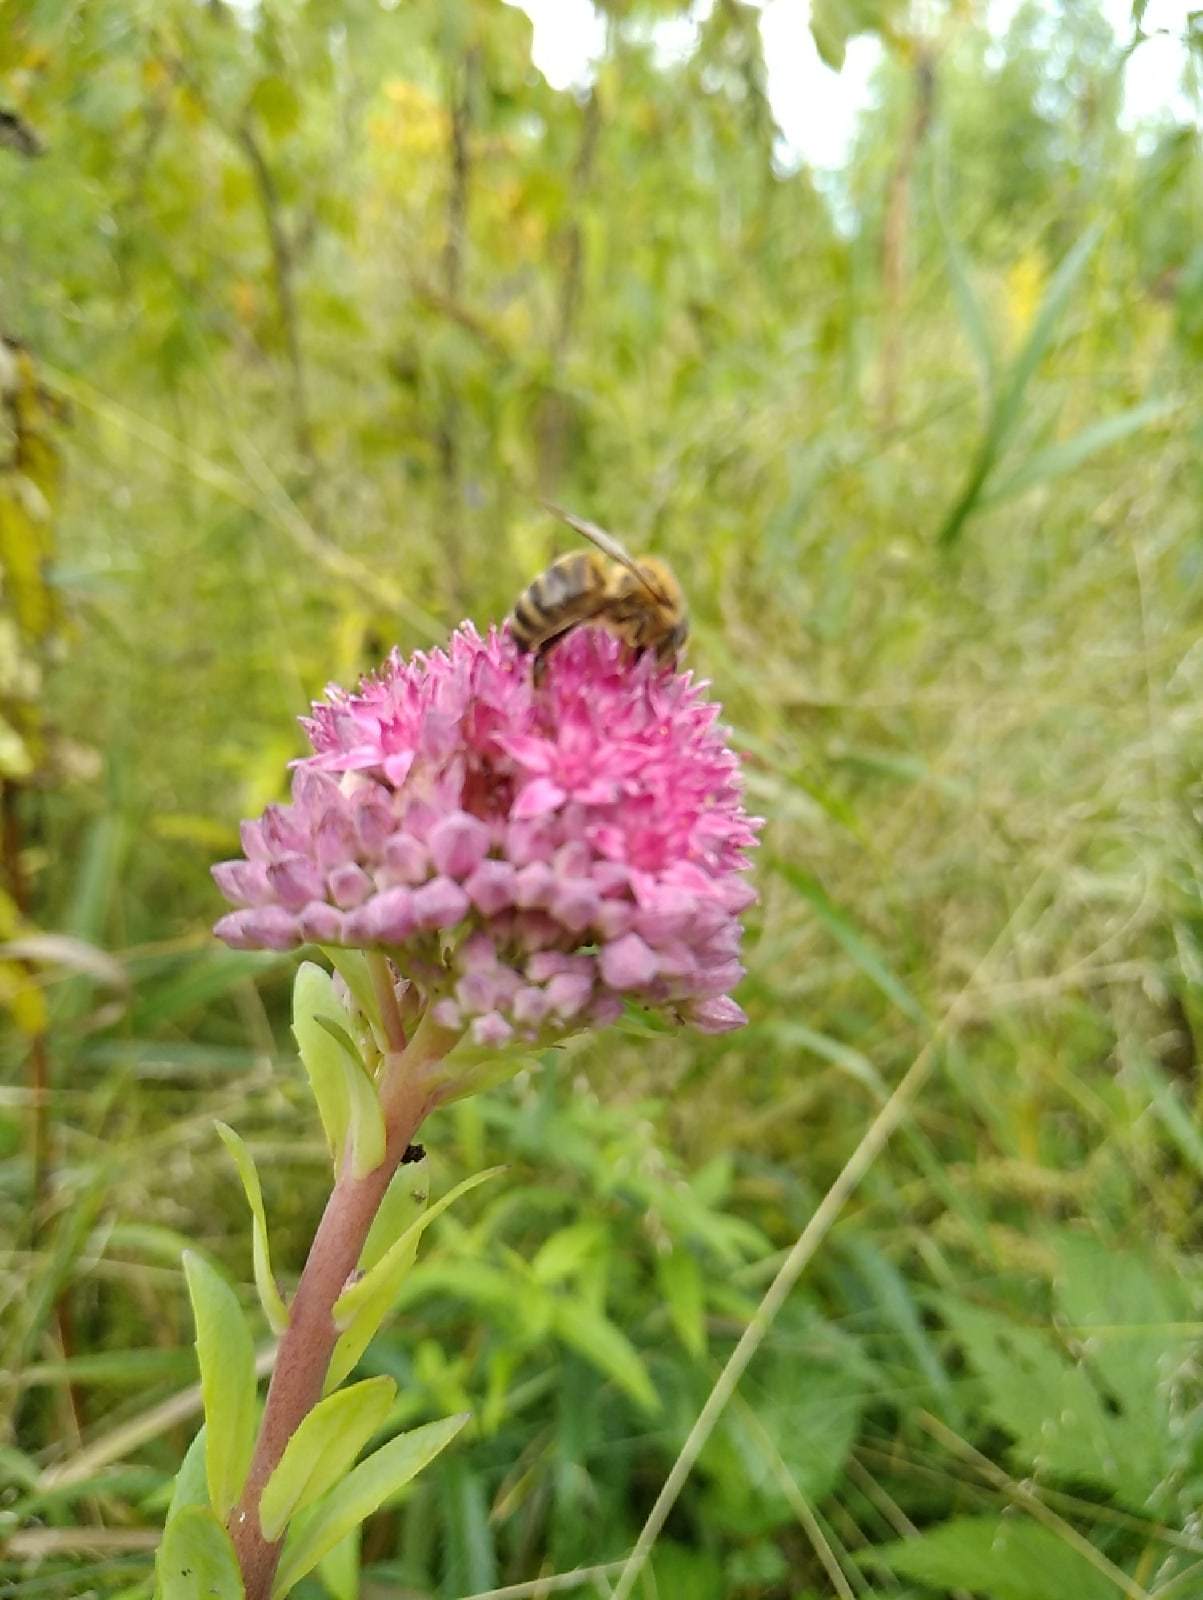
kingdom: Animalia
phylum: Arthropoda
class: Insecta
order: Hymenoptera
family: Apidae
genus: Apis
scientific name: Apis mellifera
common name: Honey bee
